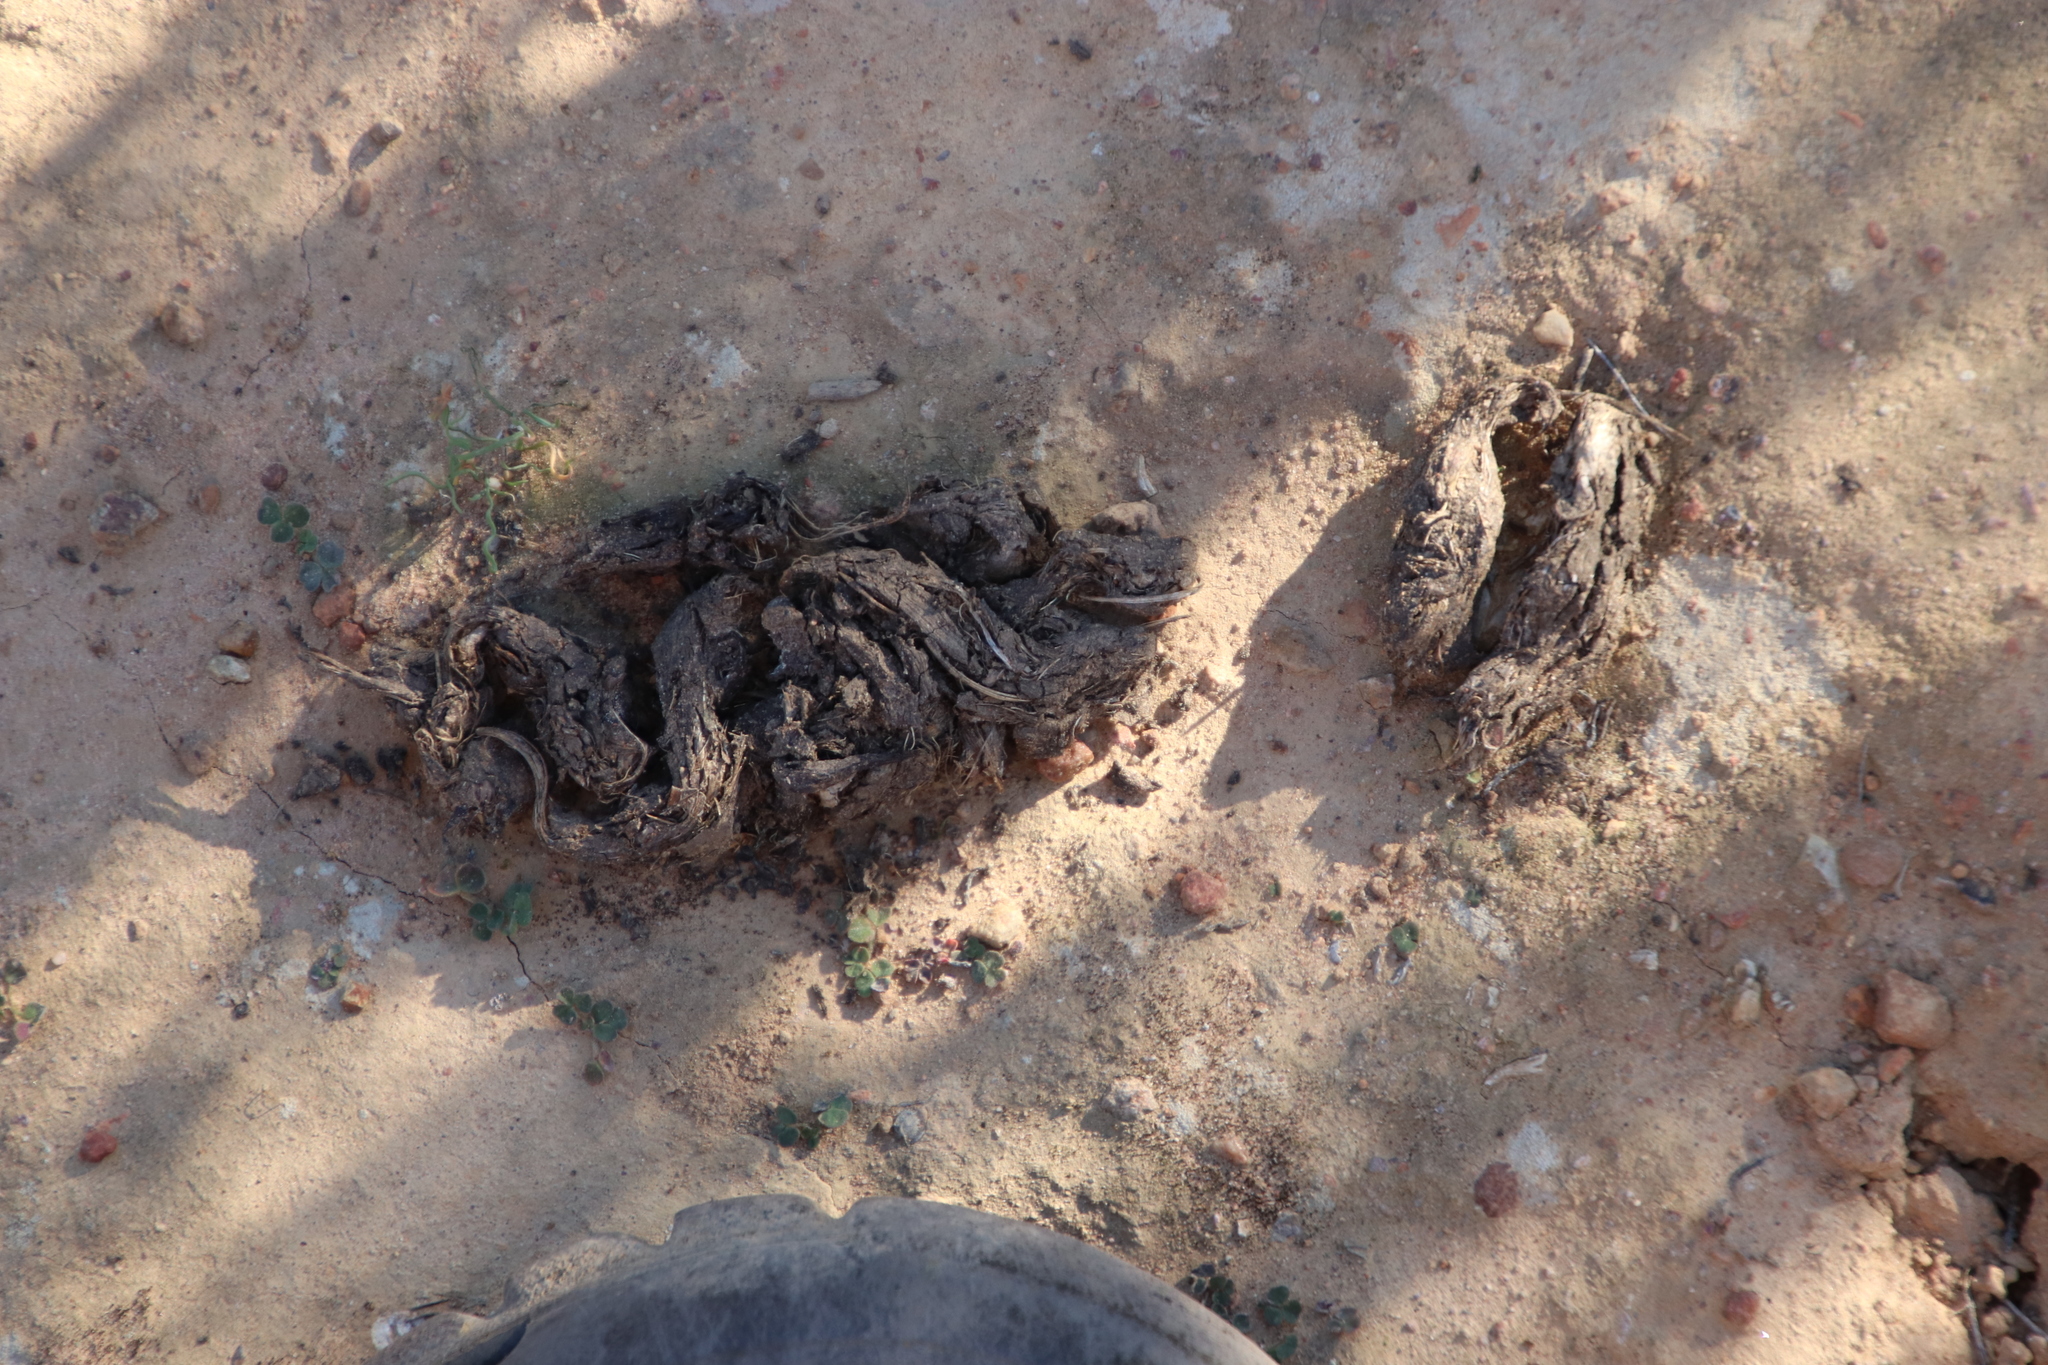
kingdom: Animalia
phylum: Chordata
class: Mammalia
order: Rodentia
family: Hystricidae
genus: Hystrix
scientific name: Hystrix africaeaustralis
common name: Cape porcupine
